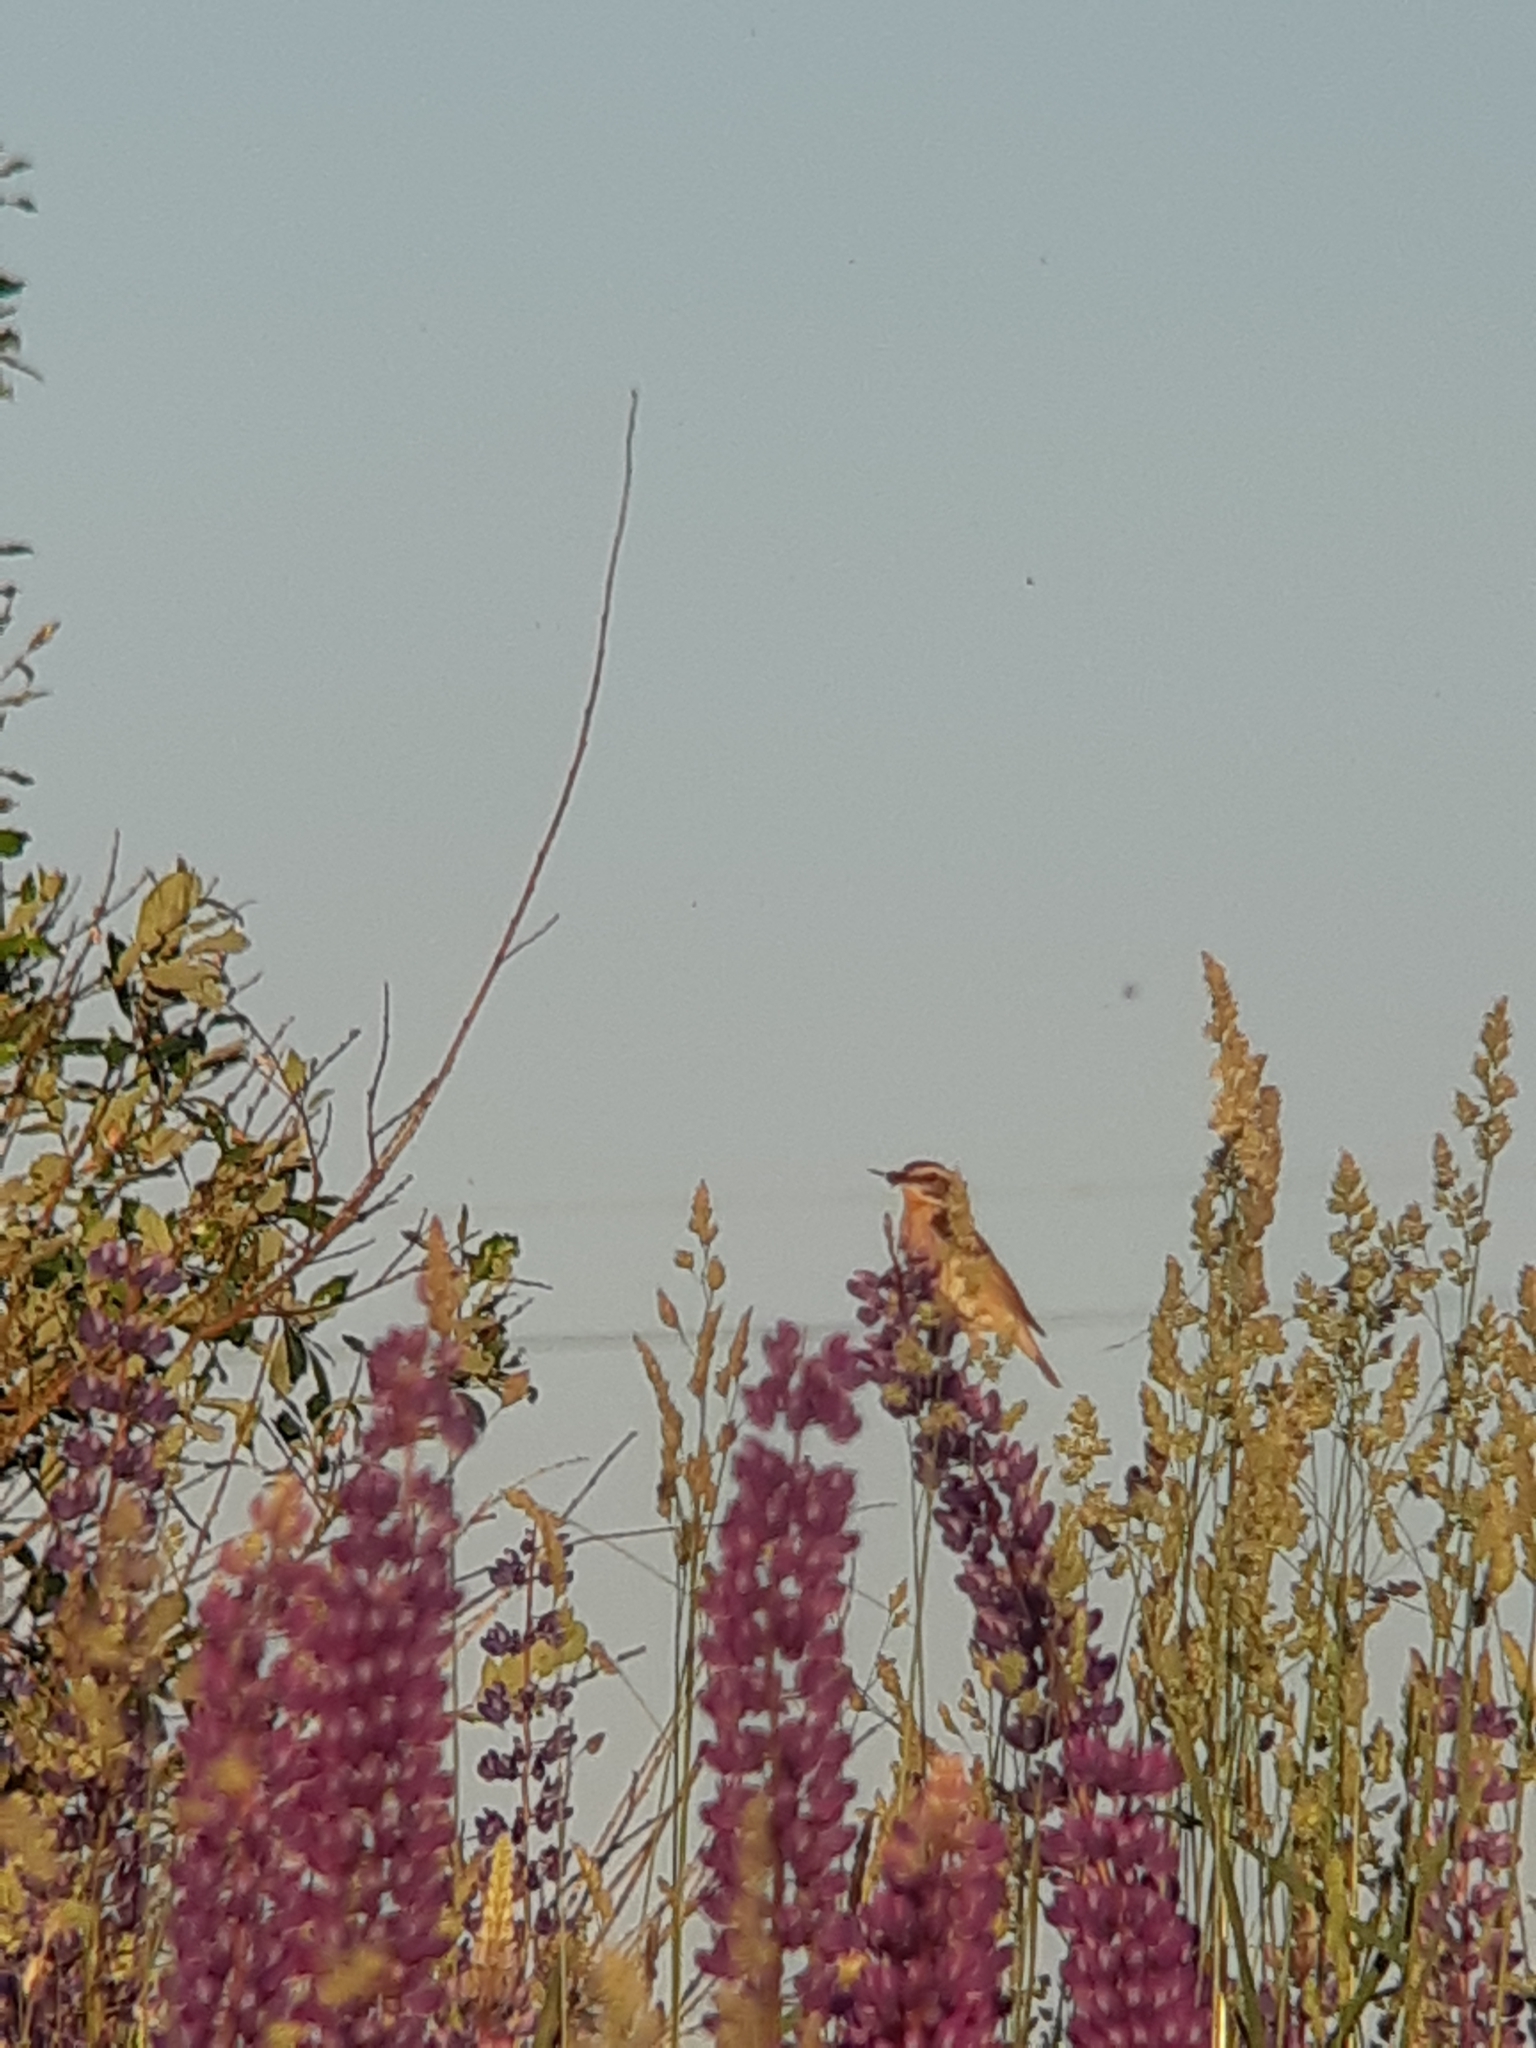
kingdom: Animalia
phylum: Chordata
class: Aves
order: Passeriformes
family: Muscicapidae
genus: Saxicola
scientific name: Saxicola rubetra
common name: Whinchat
